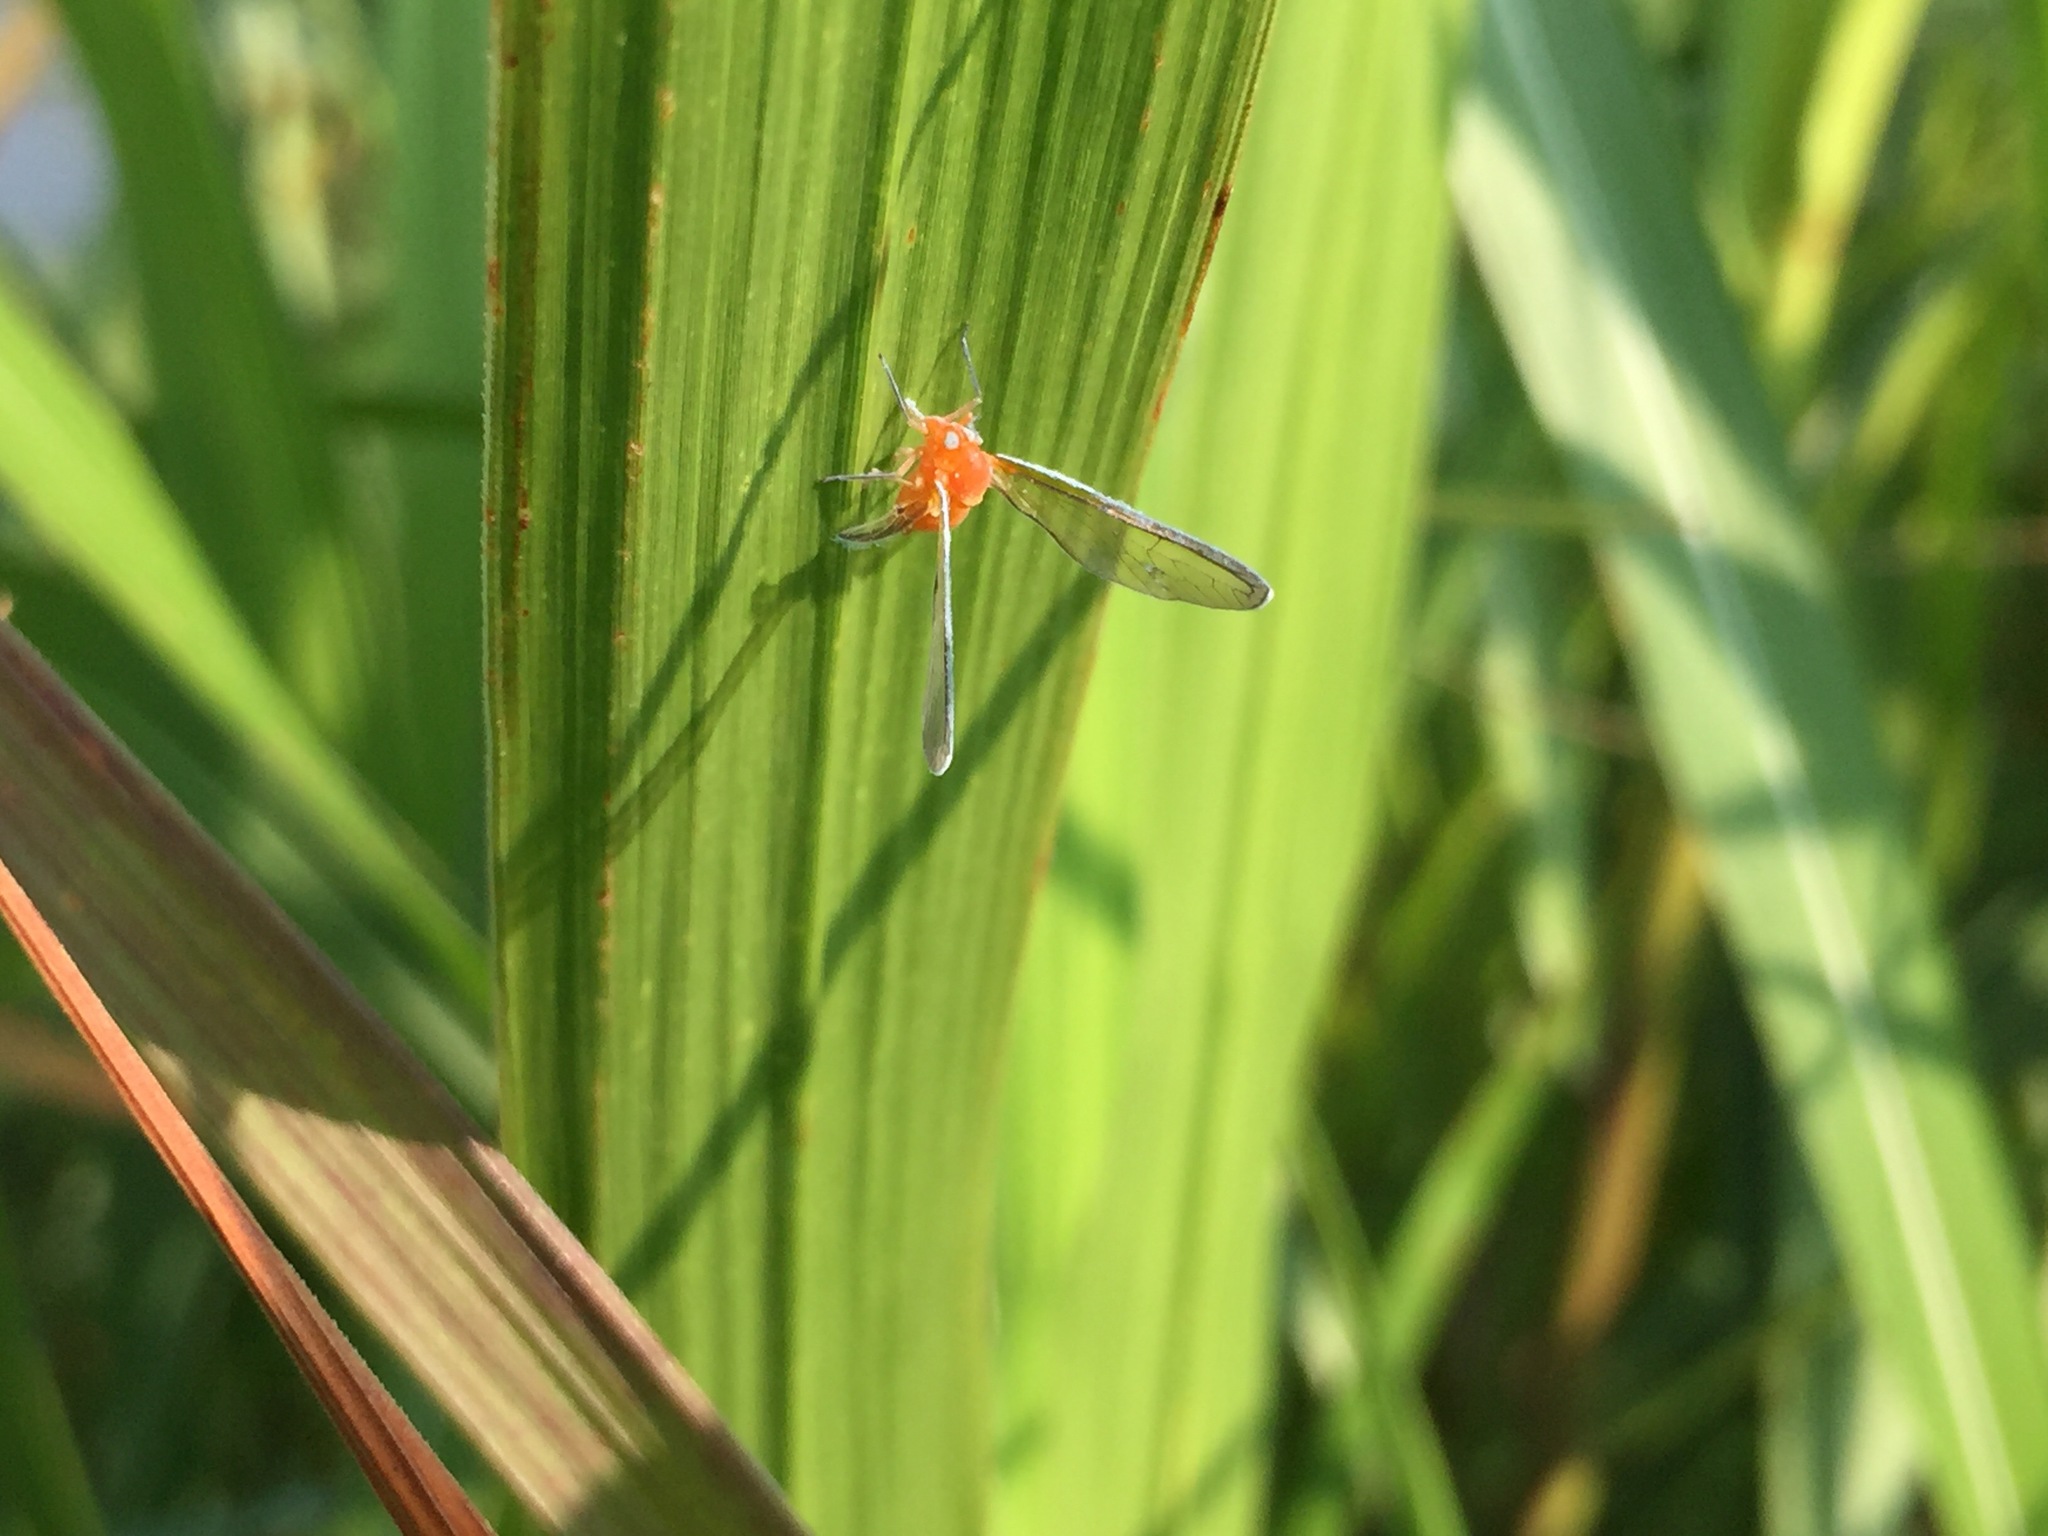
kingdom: Animalia
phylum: Arthropoda
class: Insecta
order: Hemiptera
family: Derbidae
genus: Diostrombus
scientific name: Diostrombus politus
